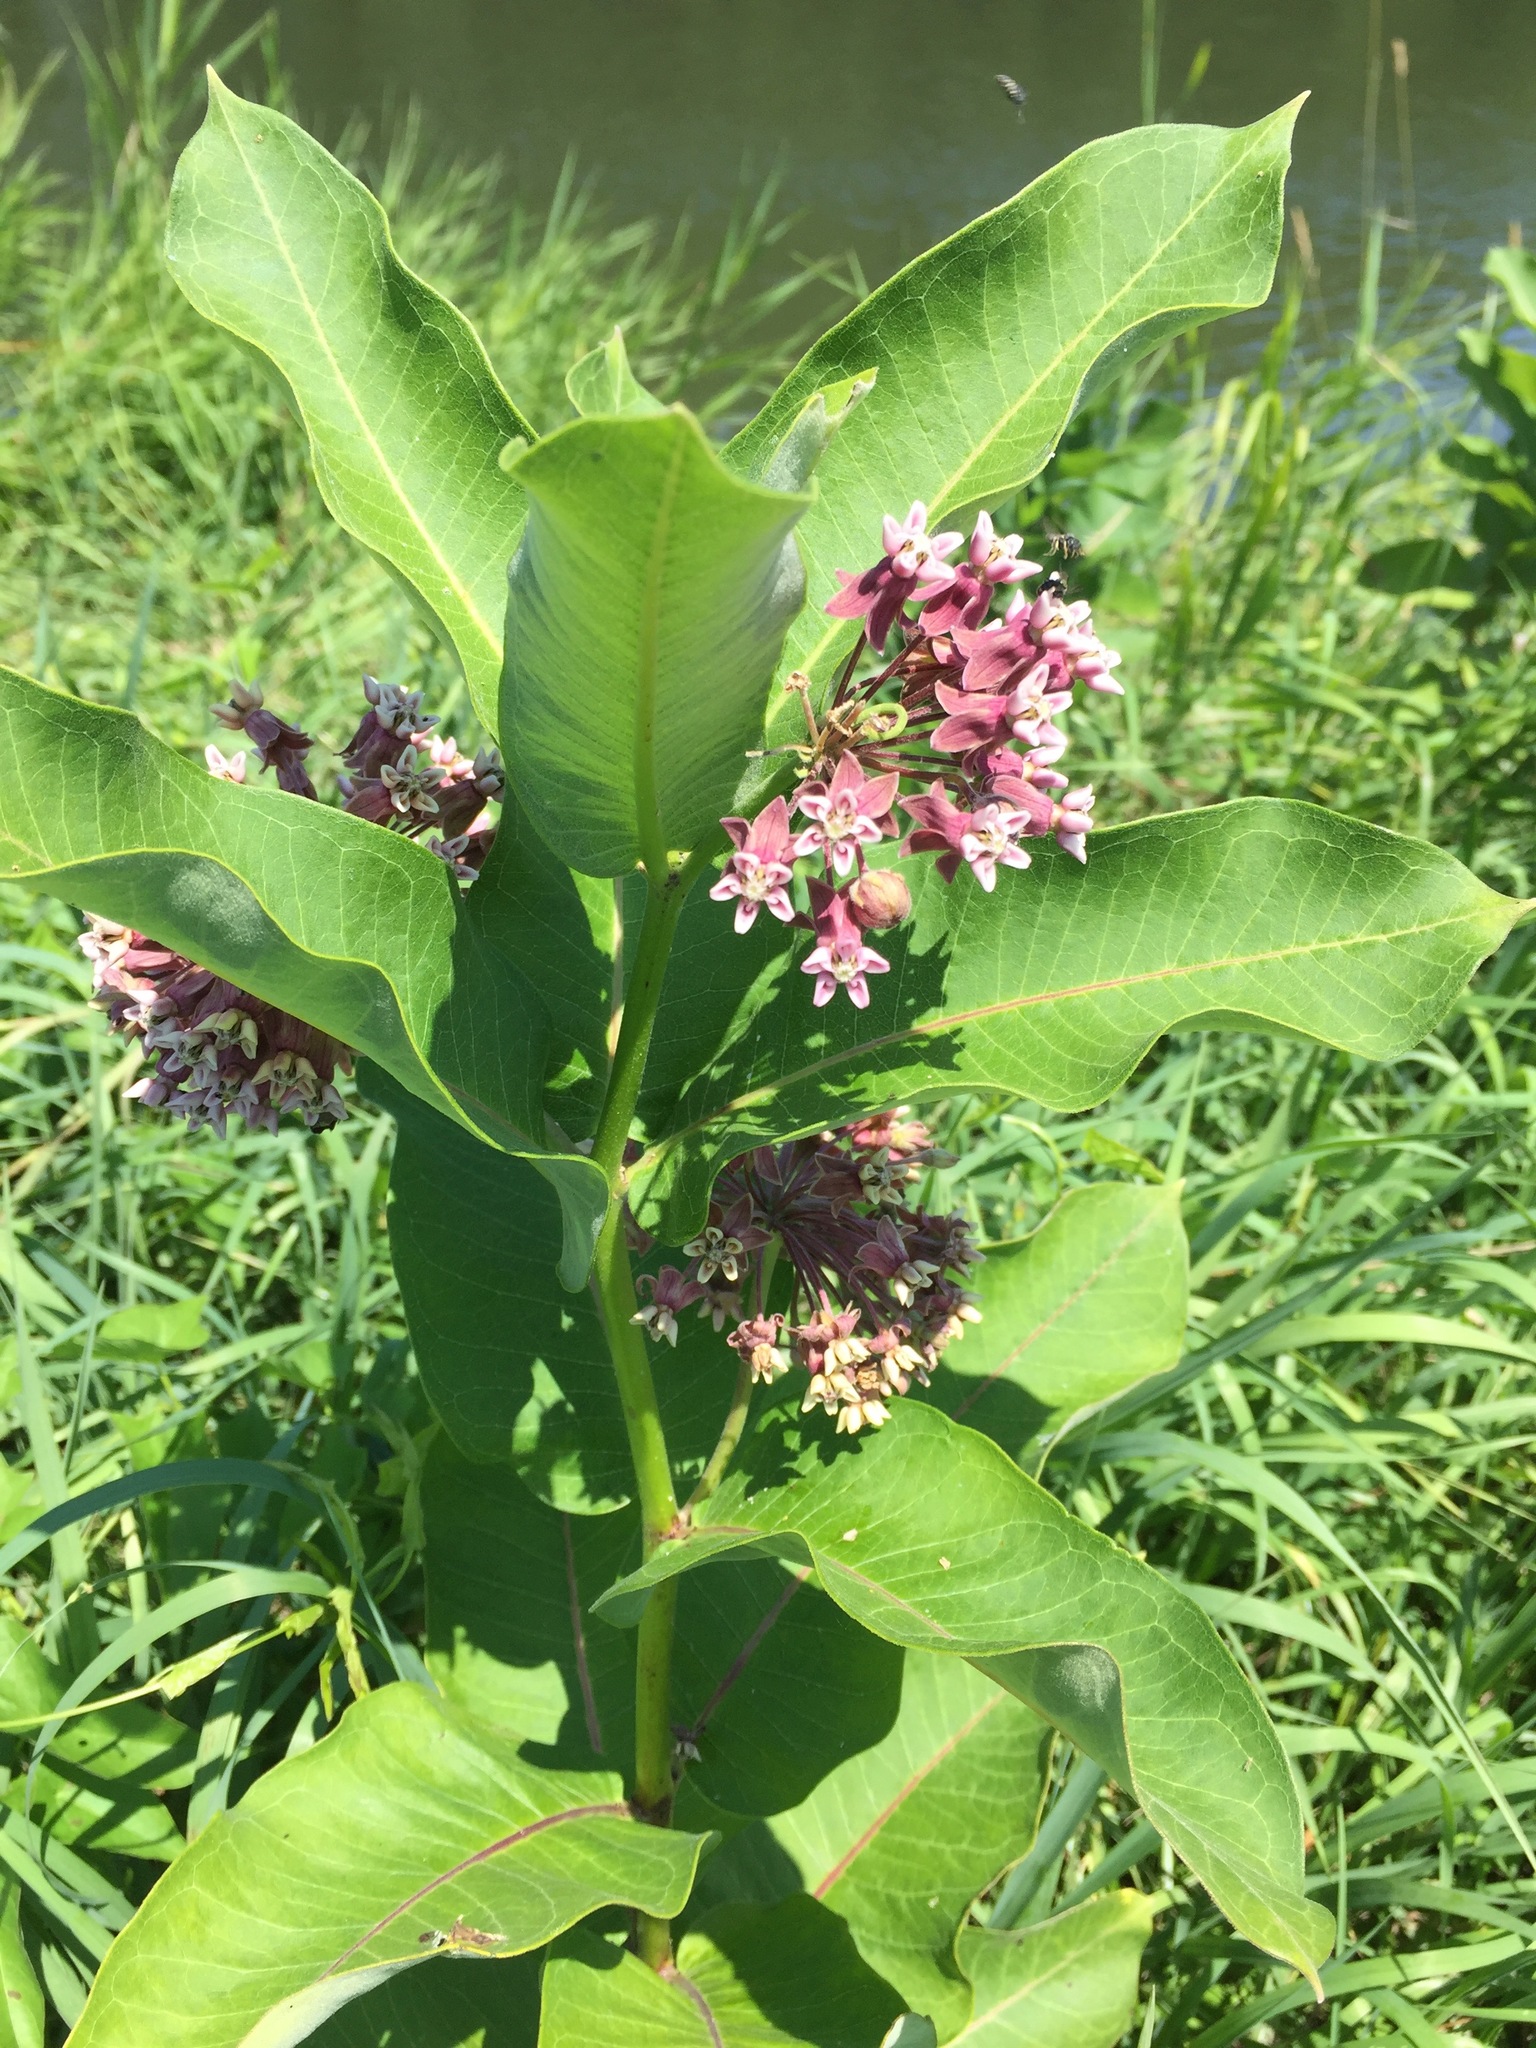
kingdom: Plantae
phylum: Tracheophyta
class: Magnoliopsida
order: Gentianales
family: Apocynaceae
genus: Asclepias
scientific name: Asclepias syriaca
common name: Common milkweed
